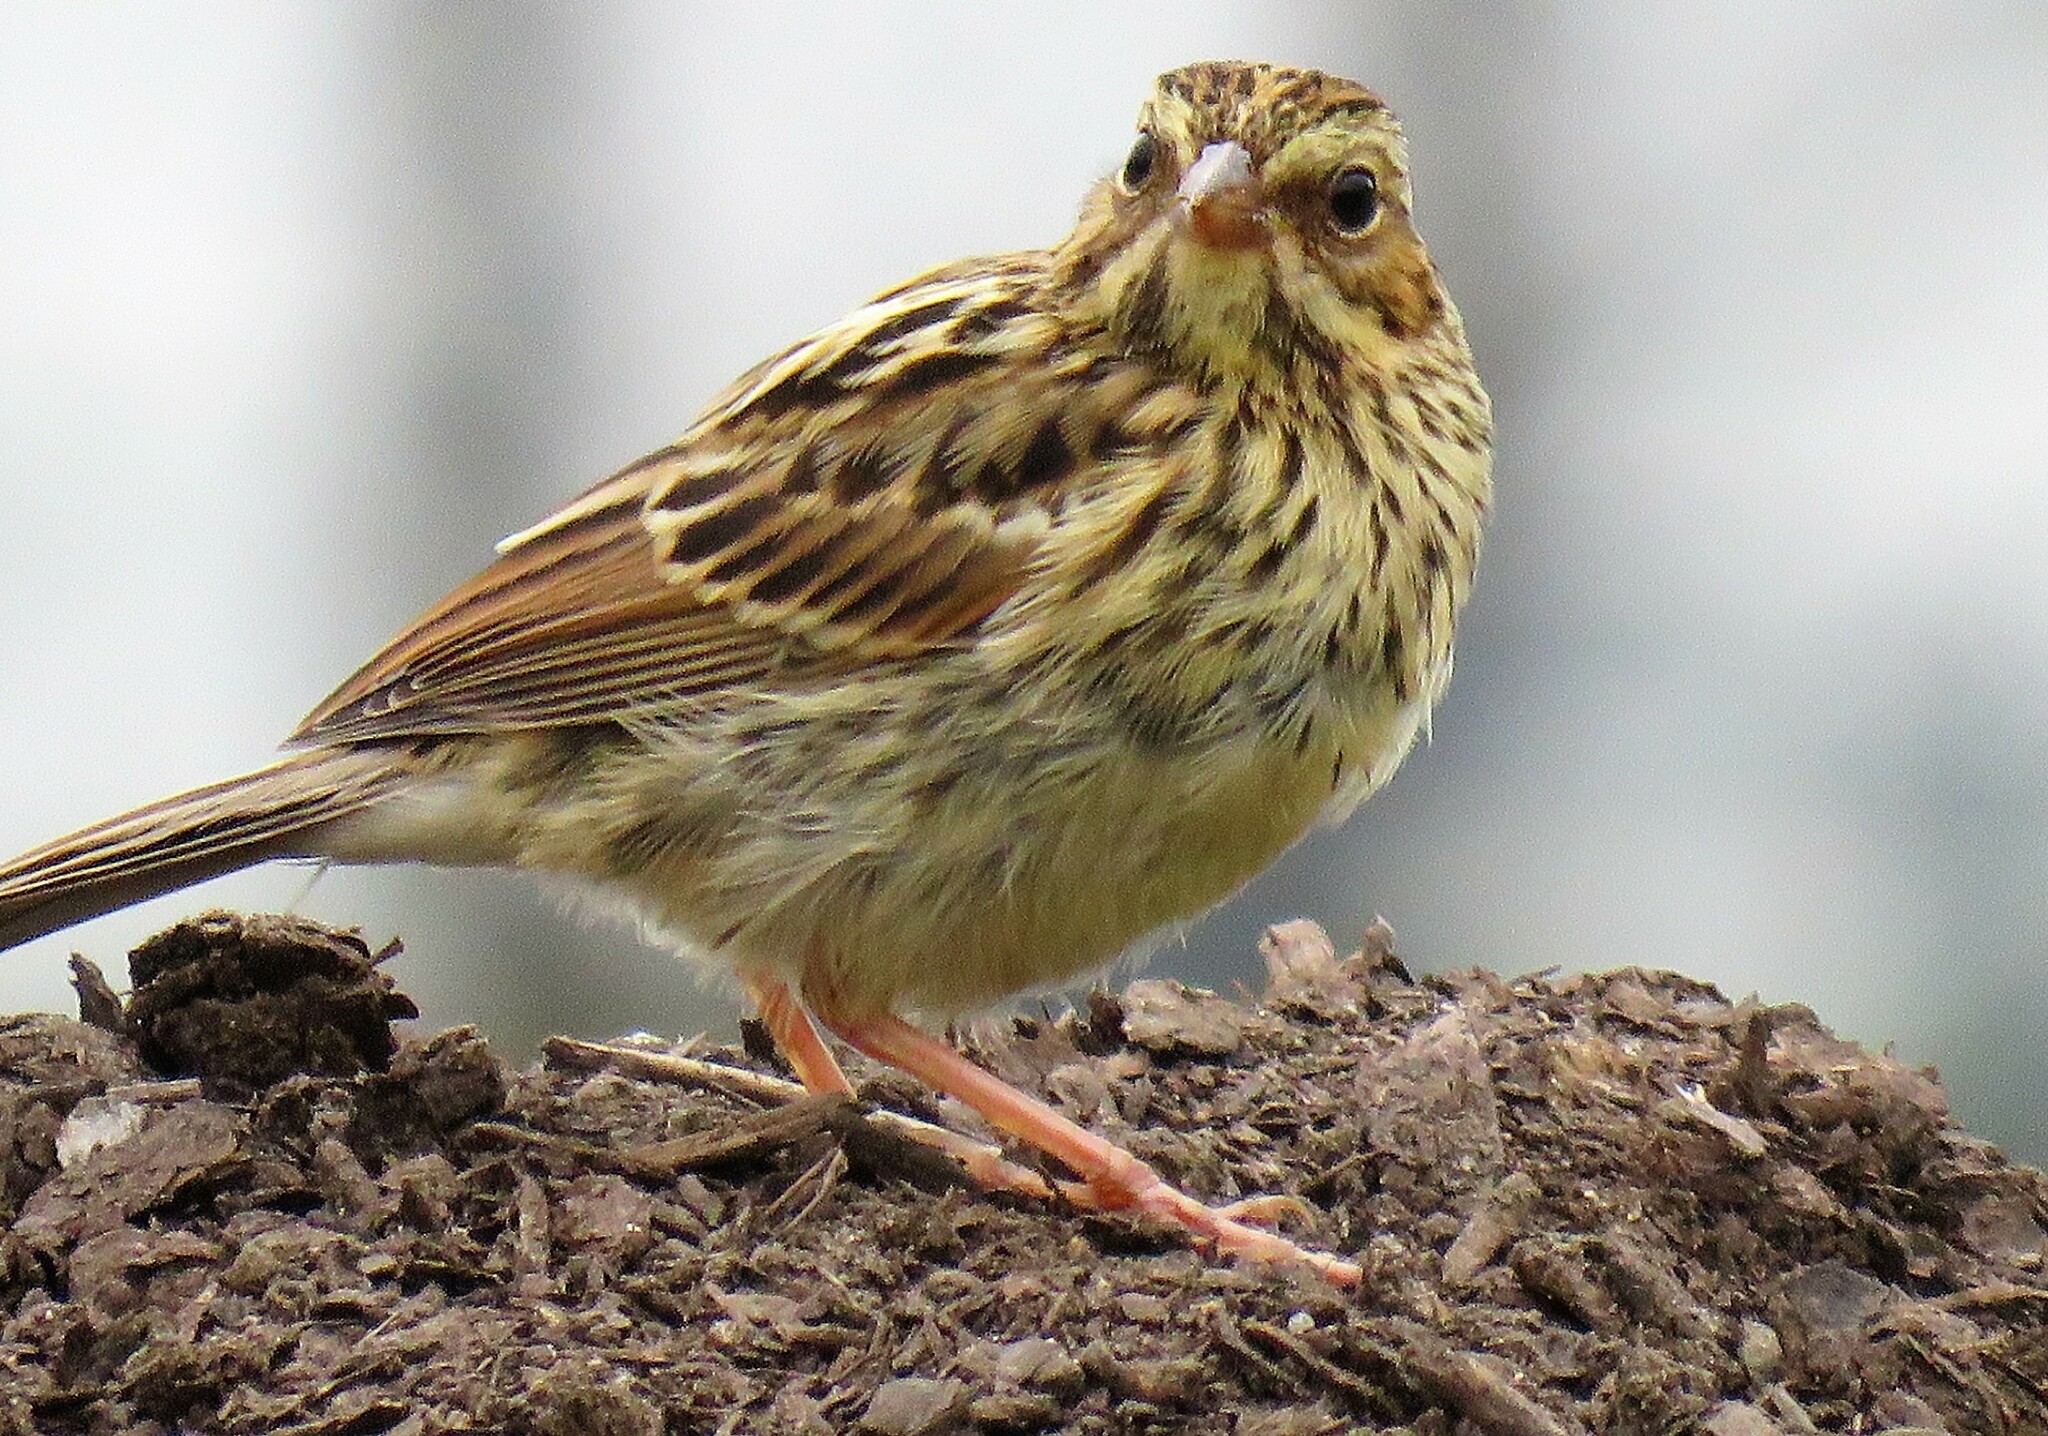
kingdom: Animalia
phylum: Chordata
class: Aves
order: Passeriformes
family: Passerellidae
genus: Passerculus
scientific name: Passerculus sandwichensis
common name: Savannah sparrow
